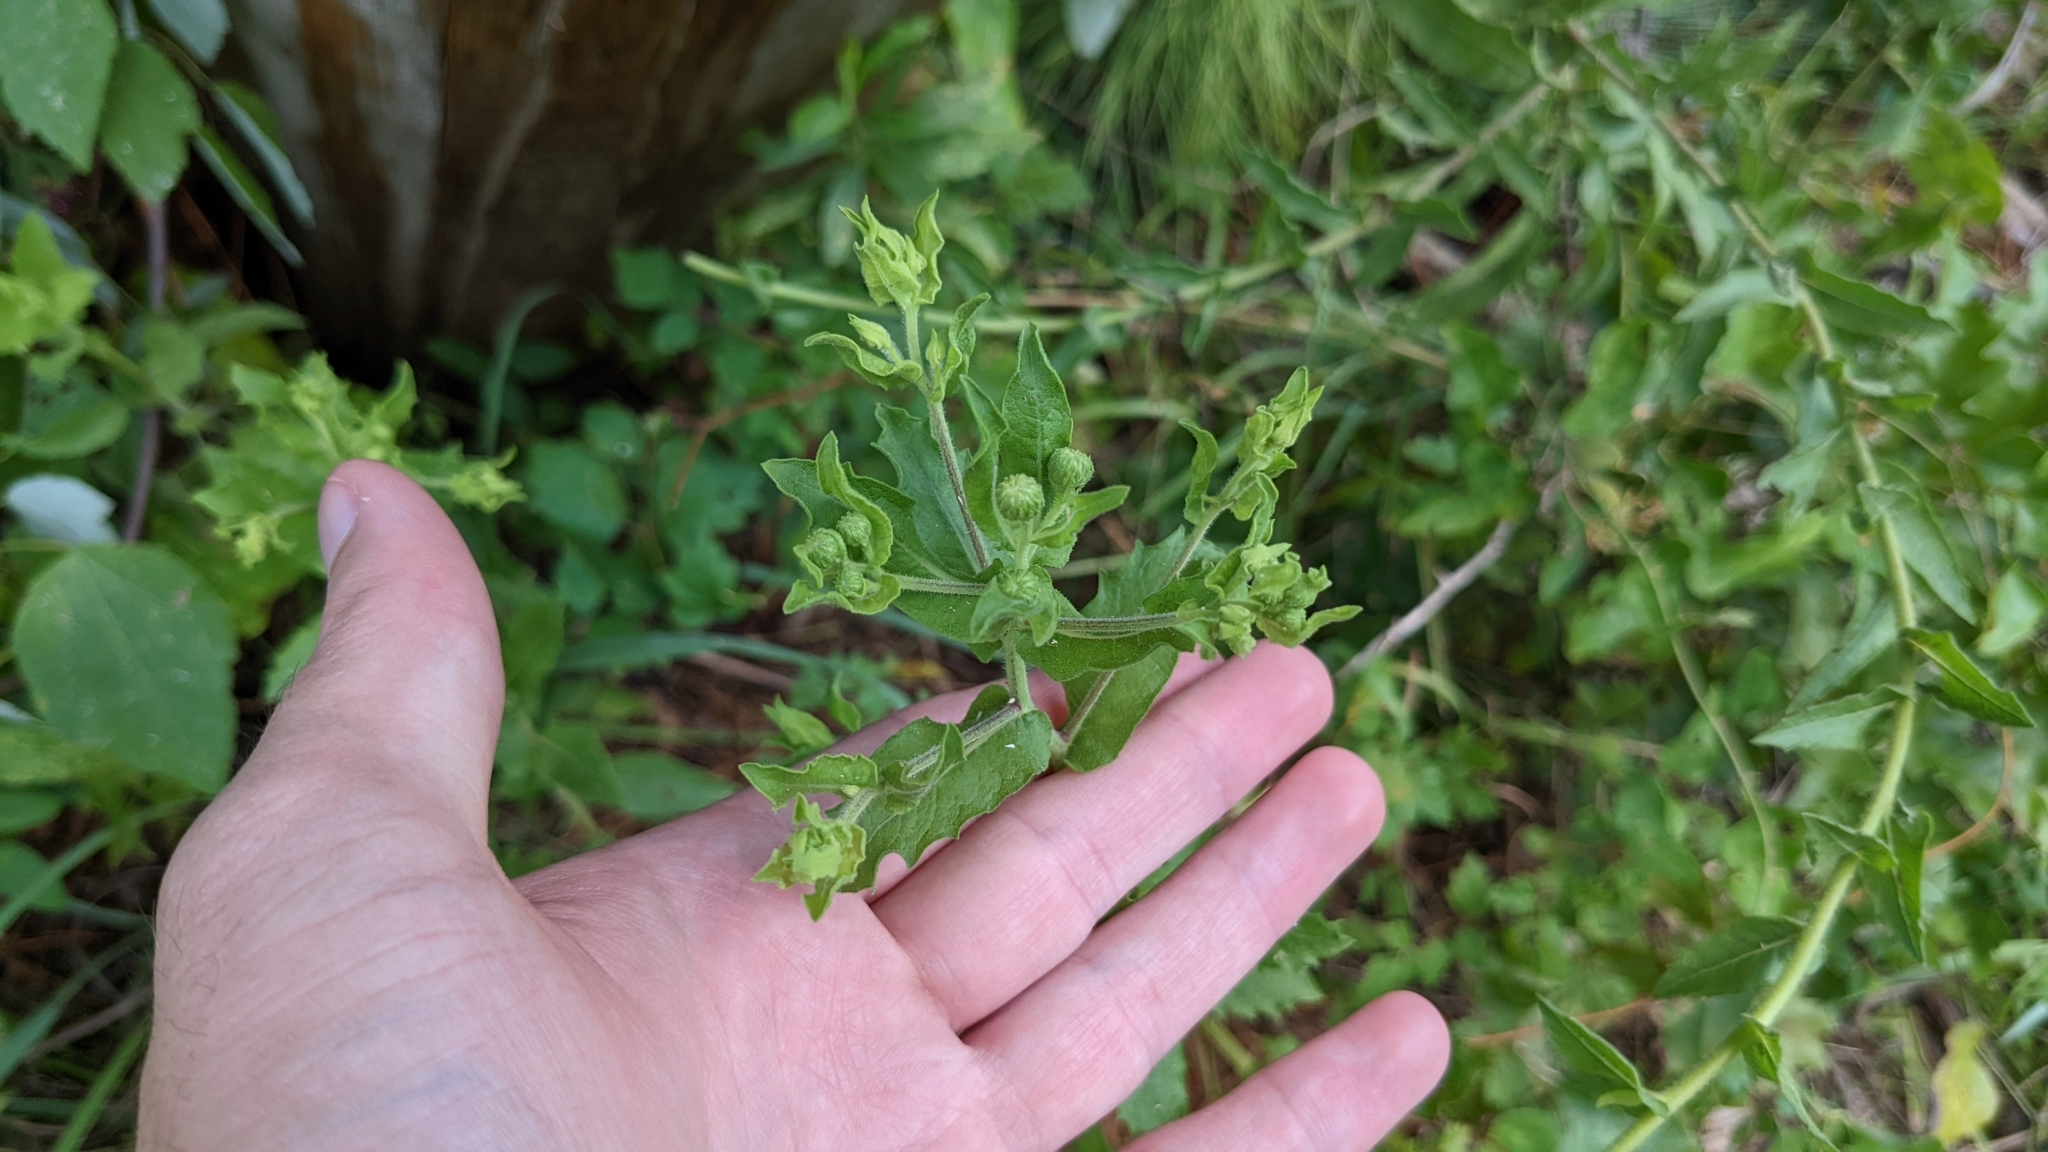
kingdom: Plantae
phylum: Tracheophyta
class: Magnoliopsida
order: Asterales
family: Asteraceae
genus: Heterotheca
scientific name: Heterotheca subaxillaris
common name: Camphorweed
